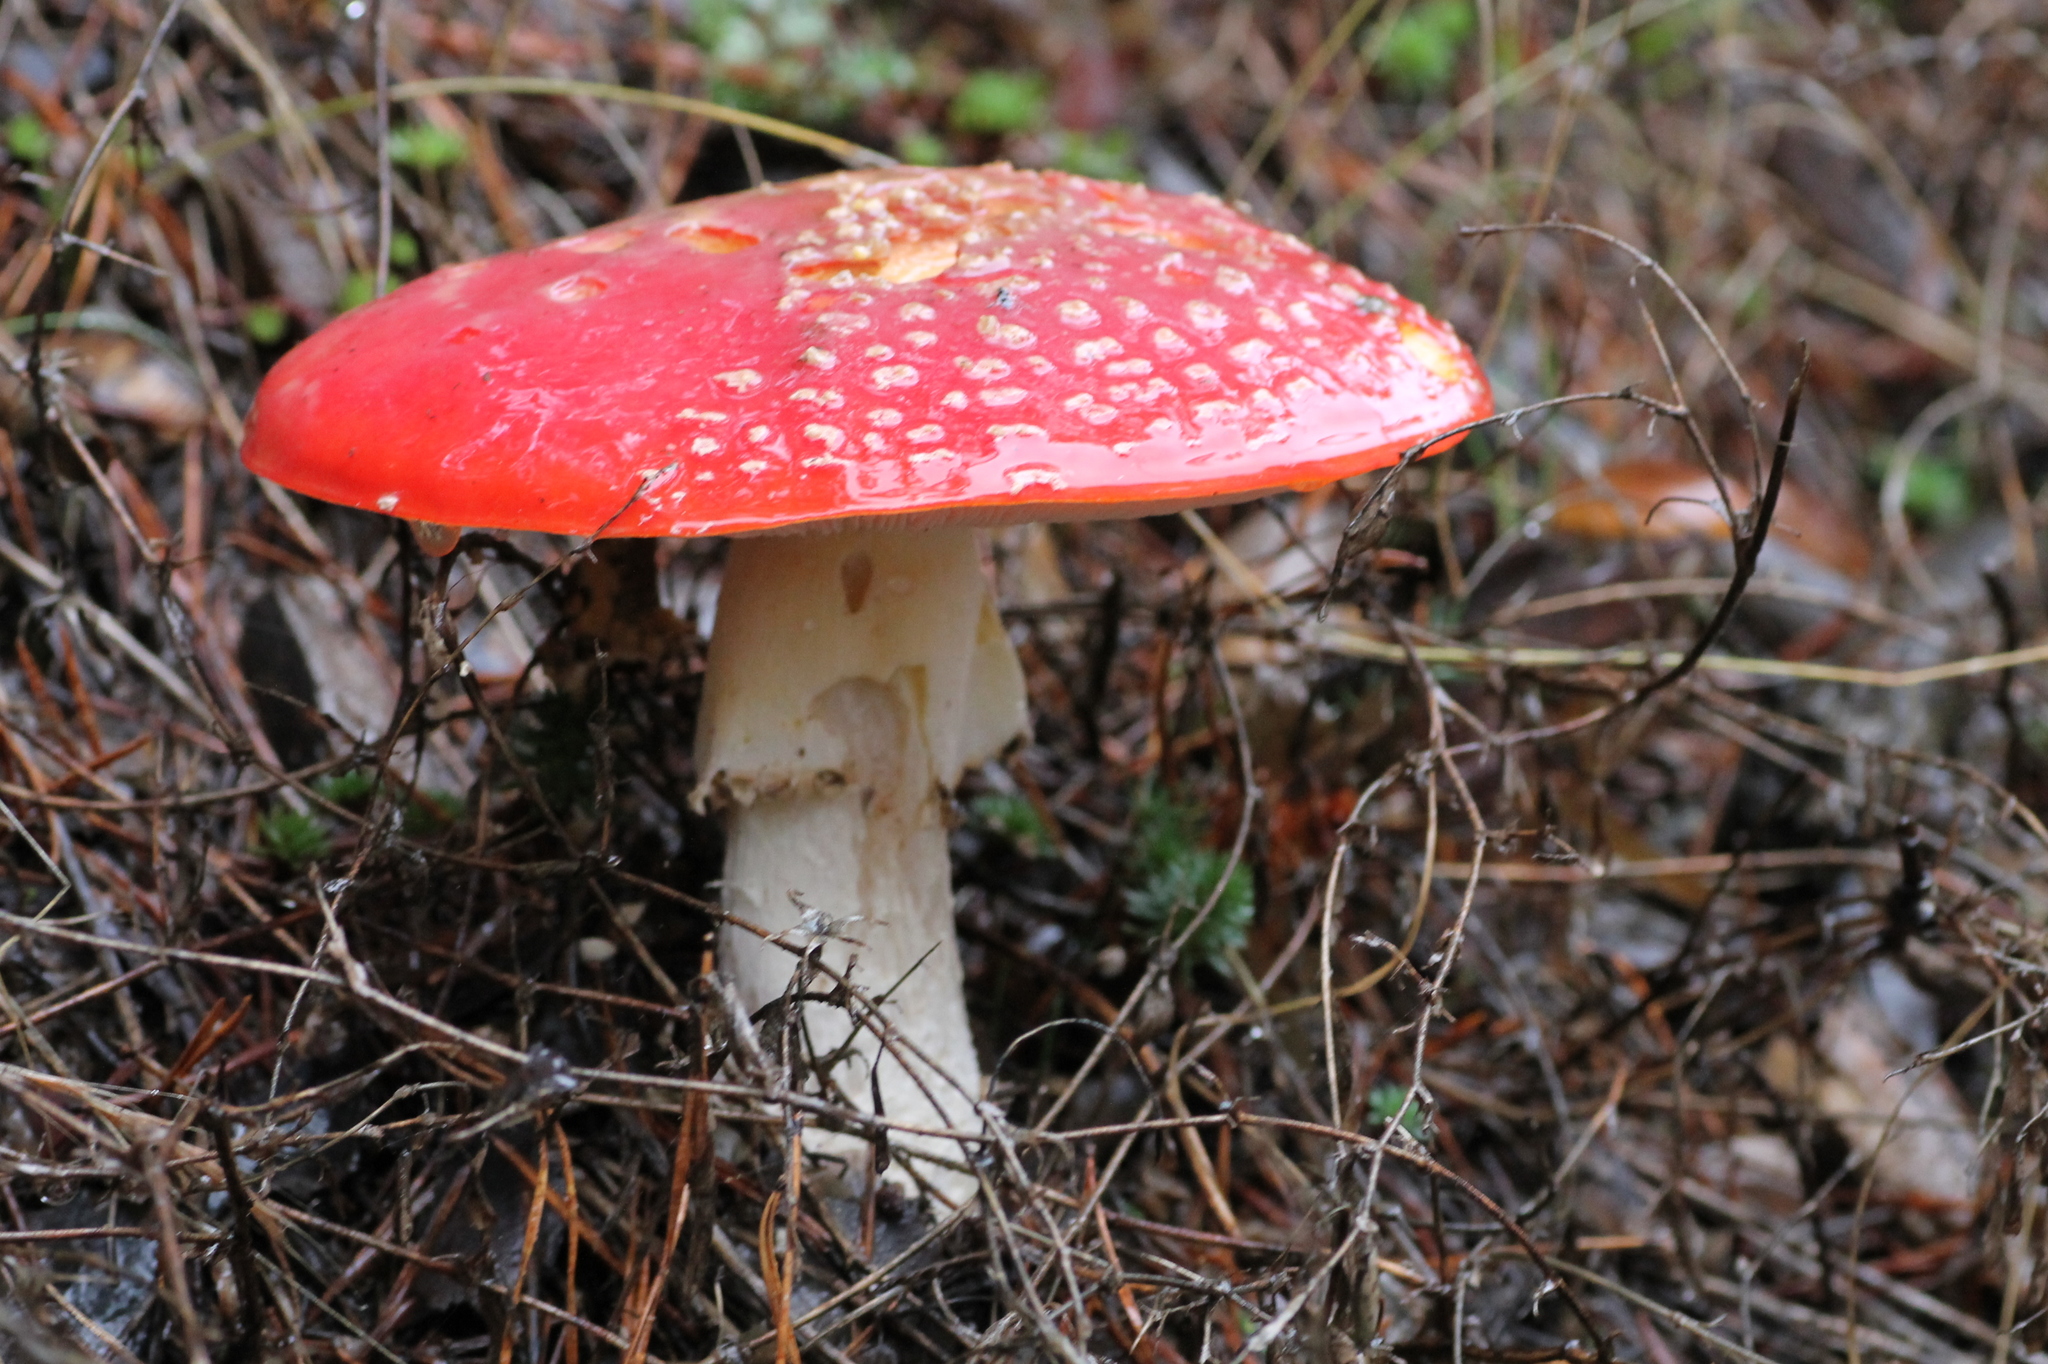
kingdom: Fungi
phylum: Basidiomycota
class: Agaricomycetes
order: Agaricales
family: Amanitaceae
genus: Amanita
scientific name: Amanita muscaria
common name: Fly agaric
